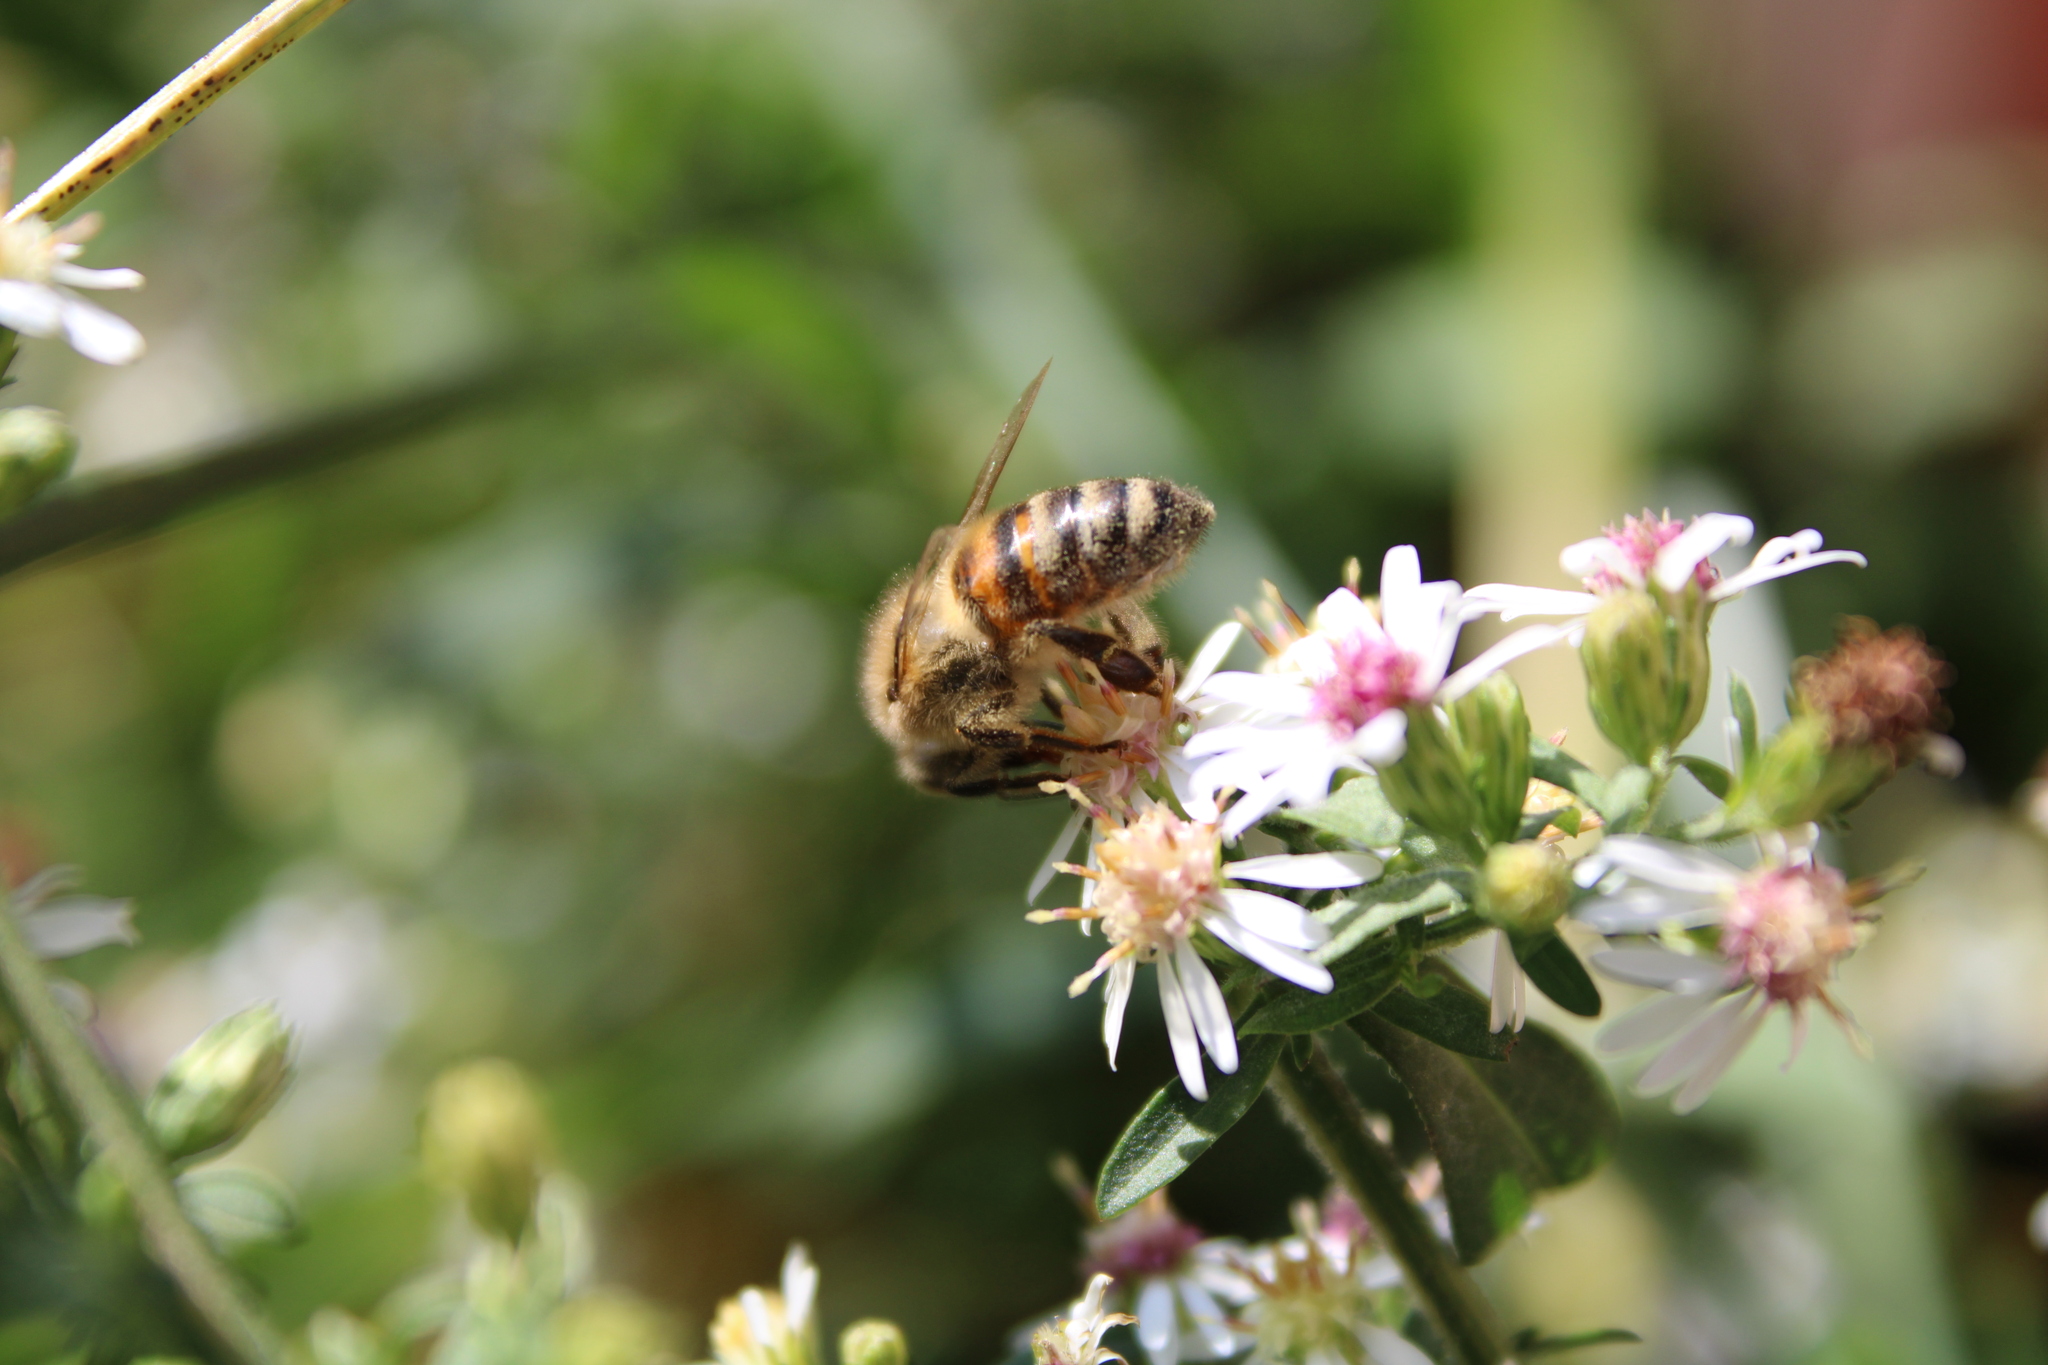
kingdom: Animalia
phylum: Arthropoda
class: Insecta
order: Hymenoptera
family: Apidae
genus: Apis
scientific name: Apis mellifera
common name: Honey bee
